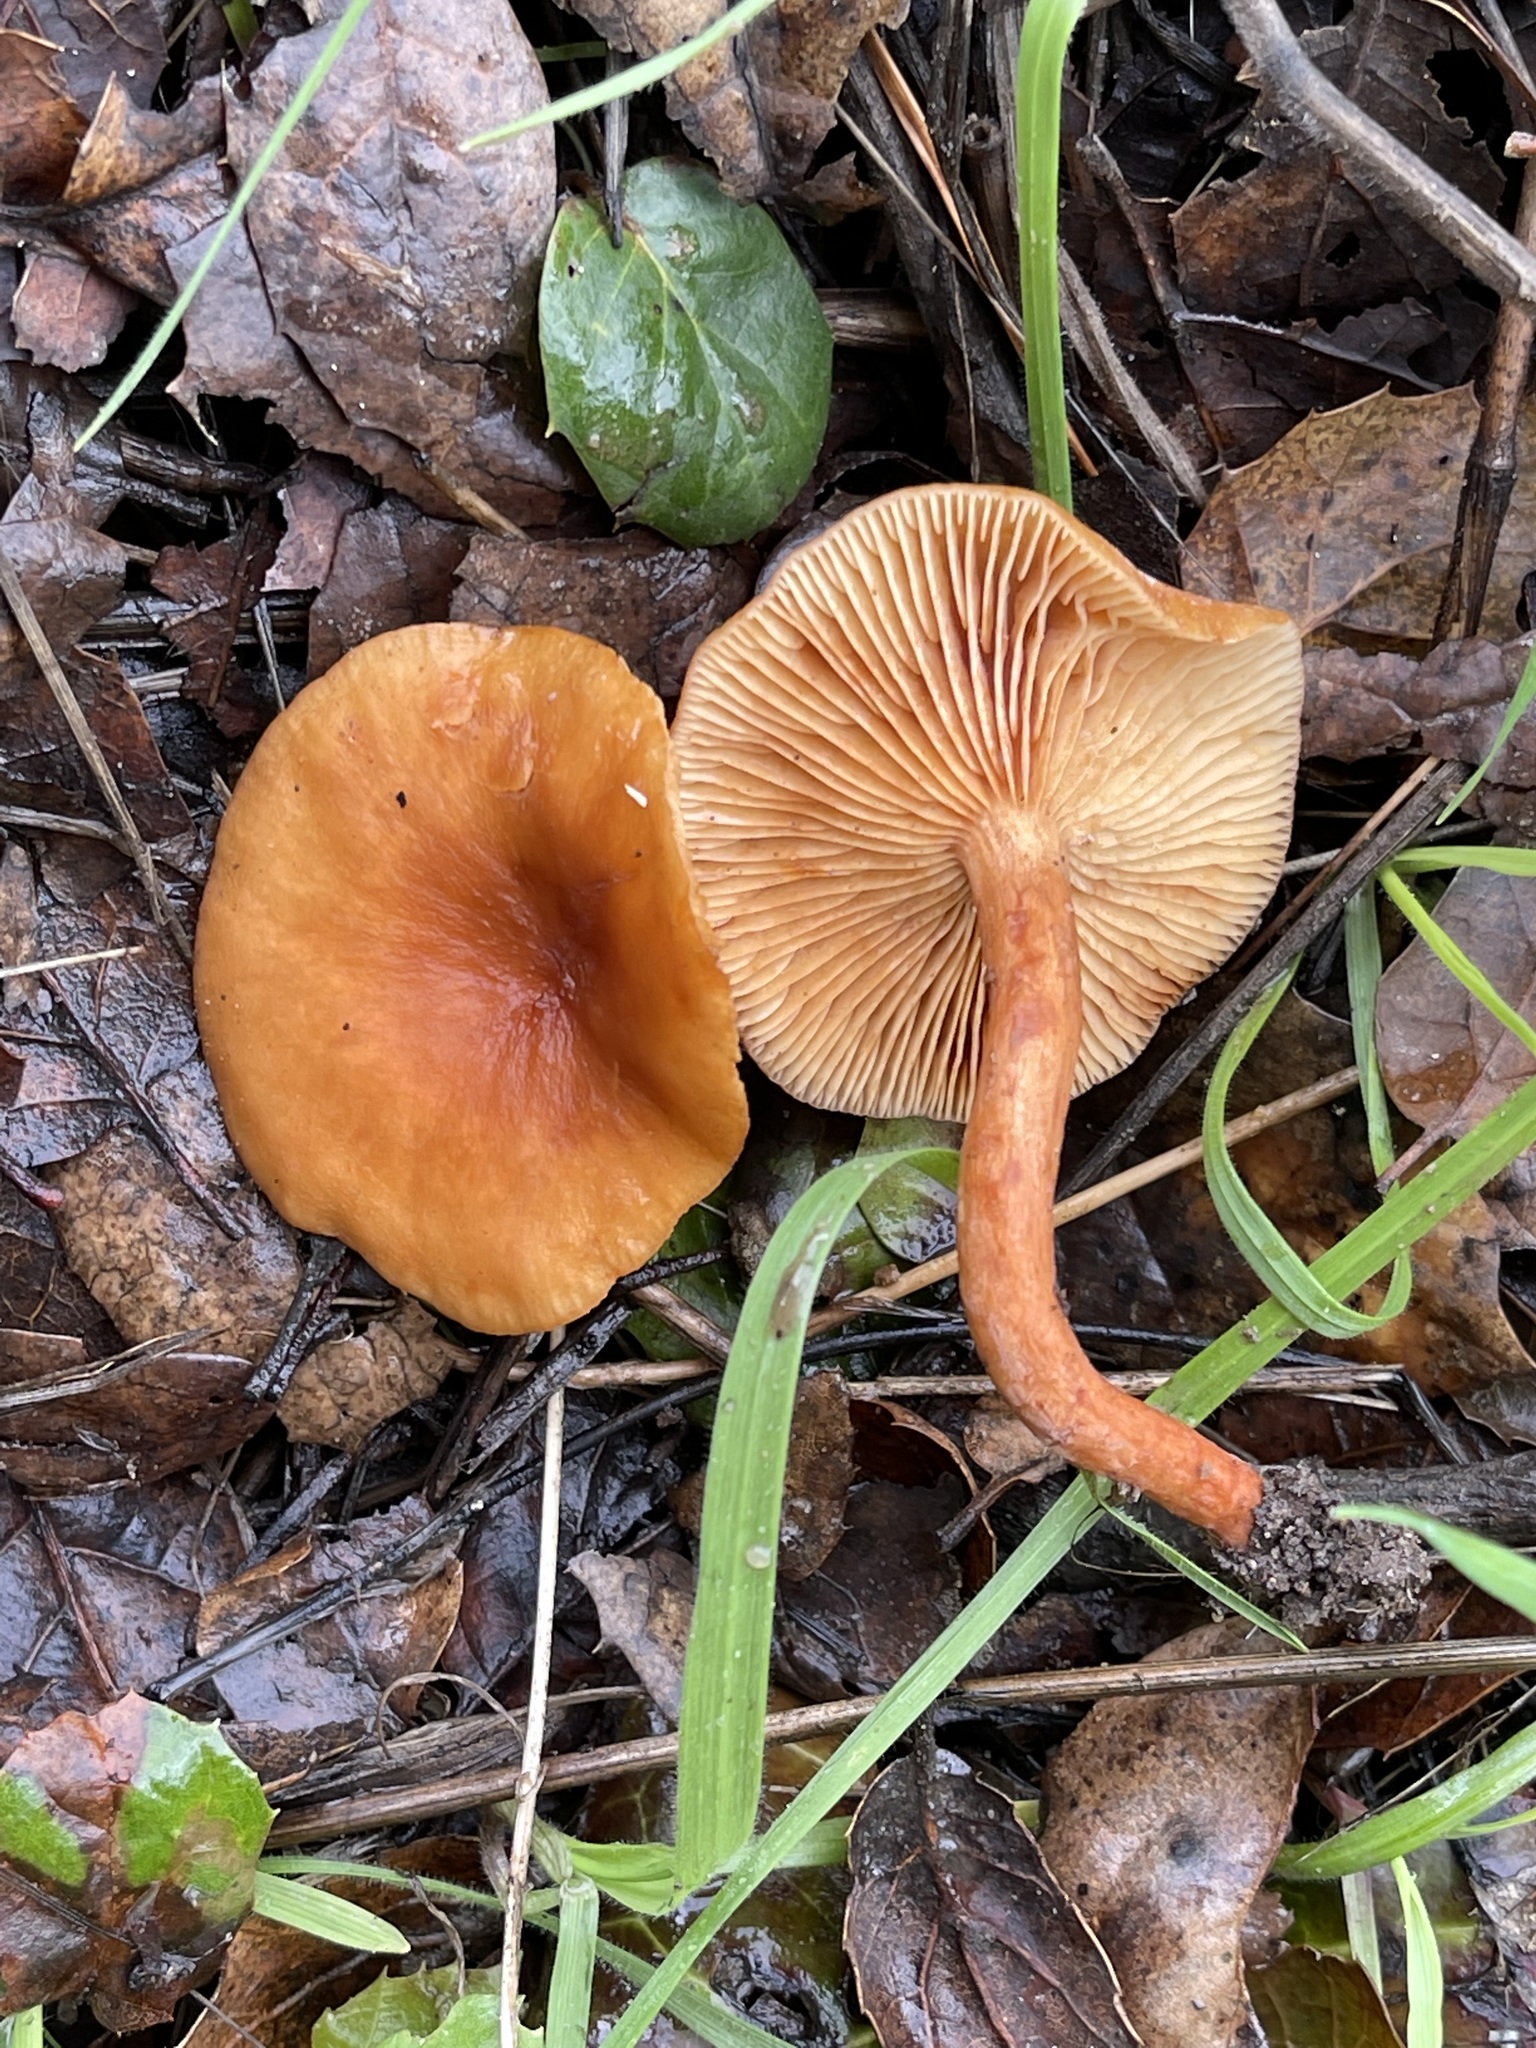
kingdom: Fungi
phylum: Basidiomycota
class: Agaricomycetes
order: Russulales
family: Russulaceae
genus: Lactarius
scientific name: Lactarius rubidus
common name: Candy cap
